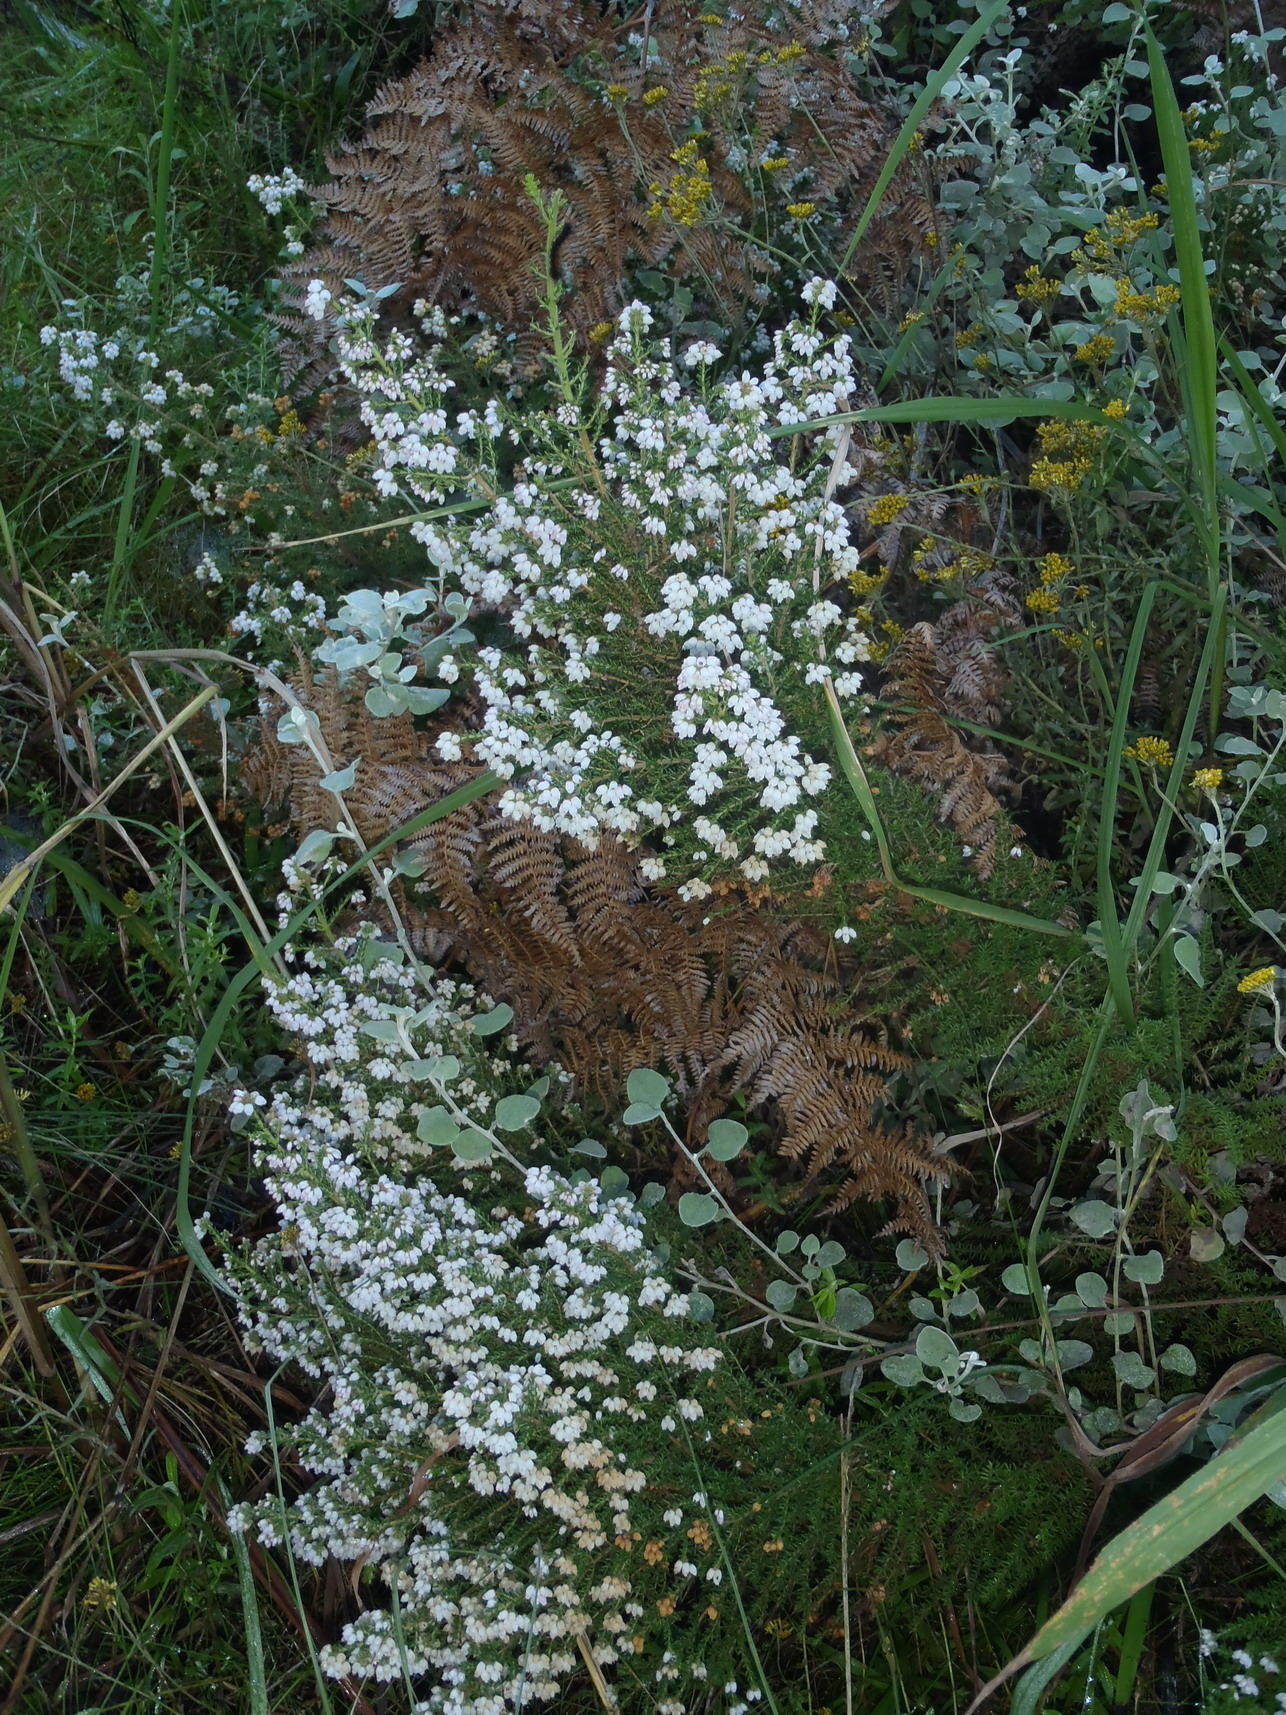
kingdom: Plantae
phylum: Tracheophyta
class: Magnoliopsida
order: Ericales
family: Ericaceae
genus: Erica
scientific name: Erica scabriuscula
